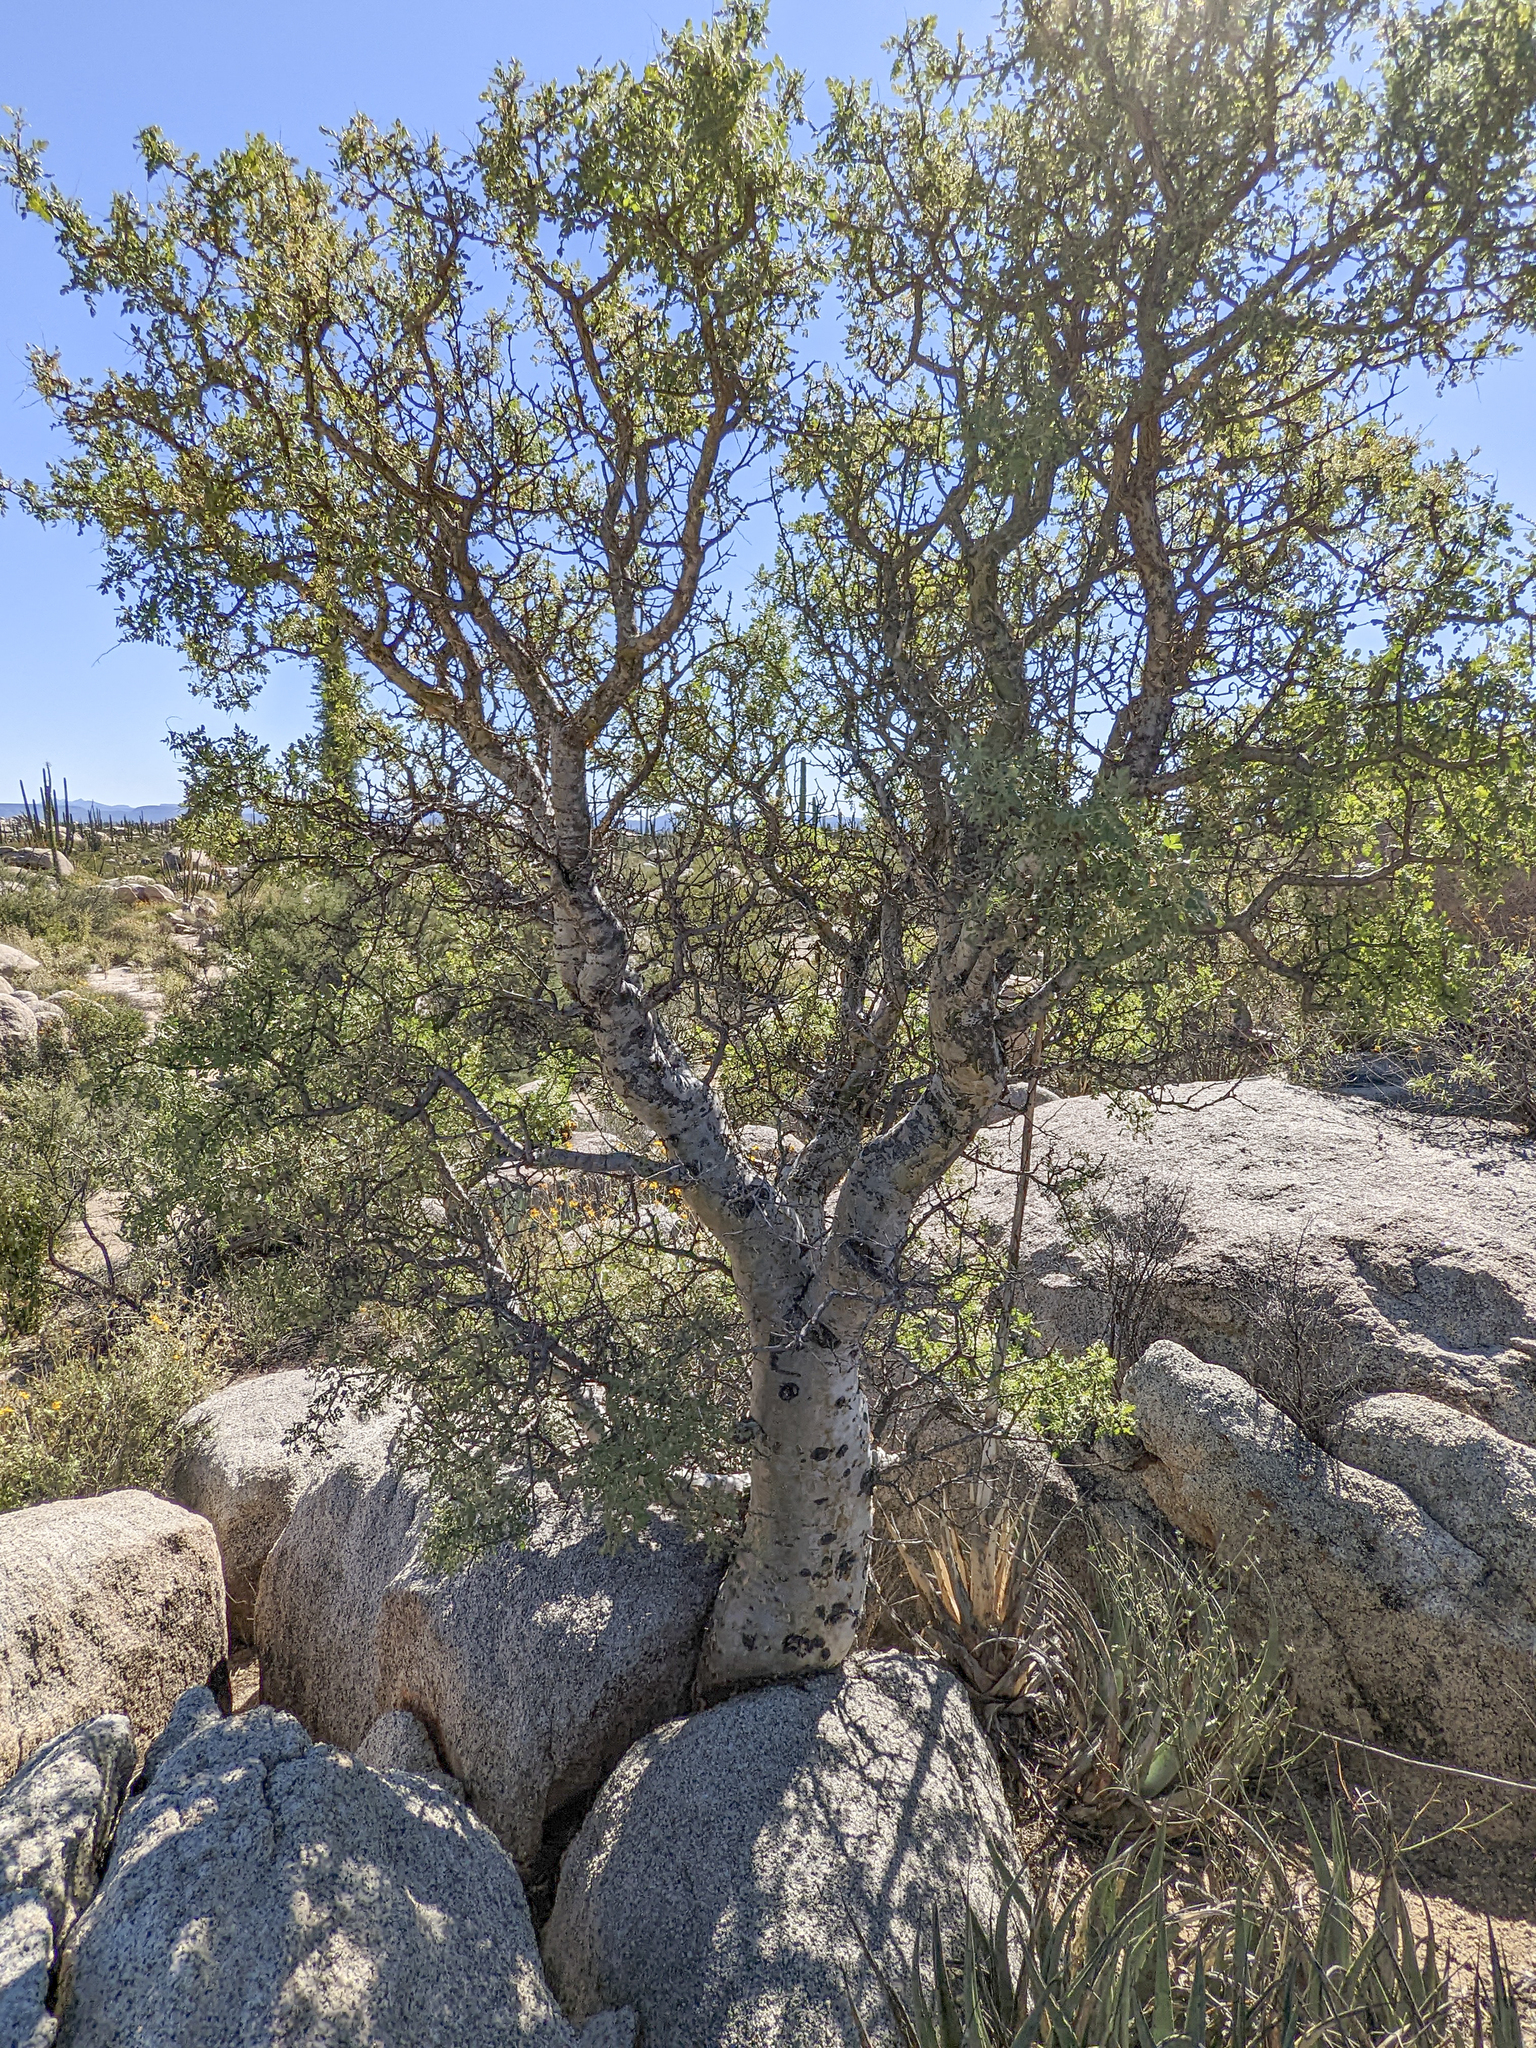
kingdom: Plantae
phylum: Tracheophyta
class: Magnoliopsida
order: Sapindales
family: Anacardiaceae
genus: Pachycormus
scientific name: Pachycormus discolor
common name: Succulent elephant trees
